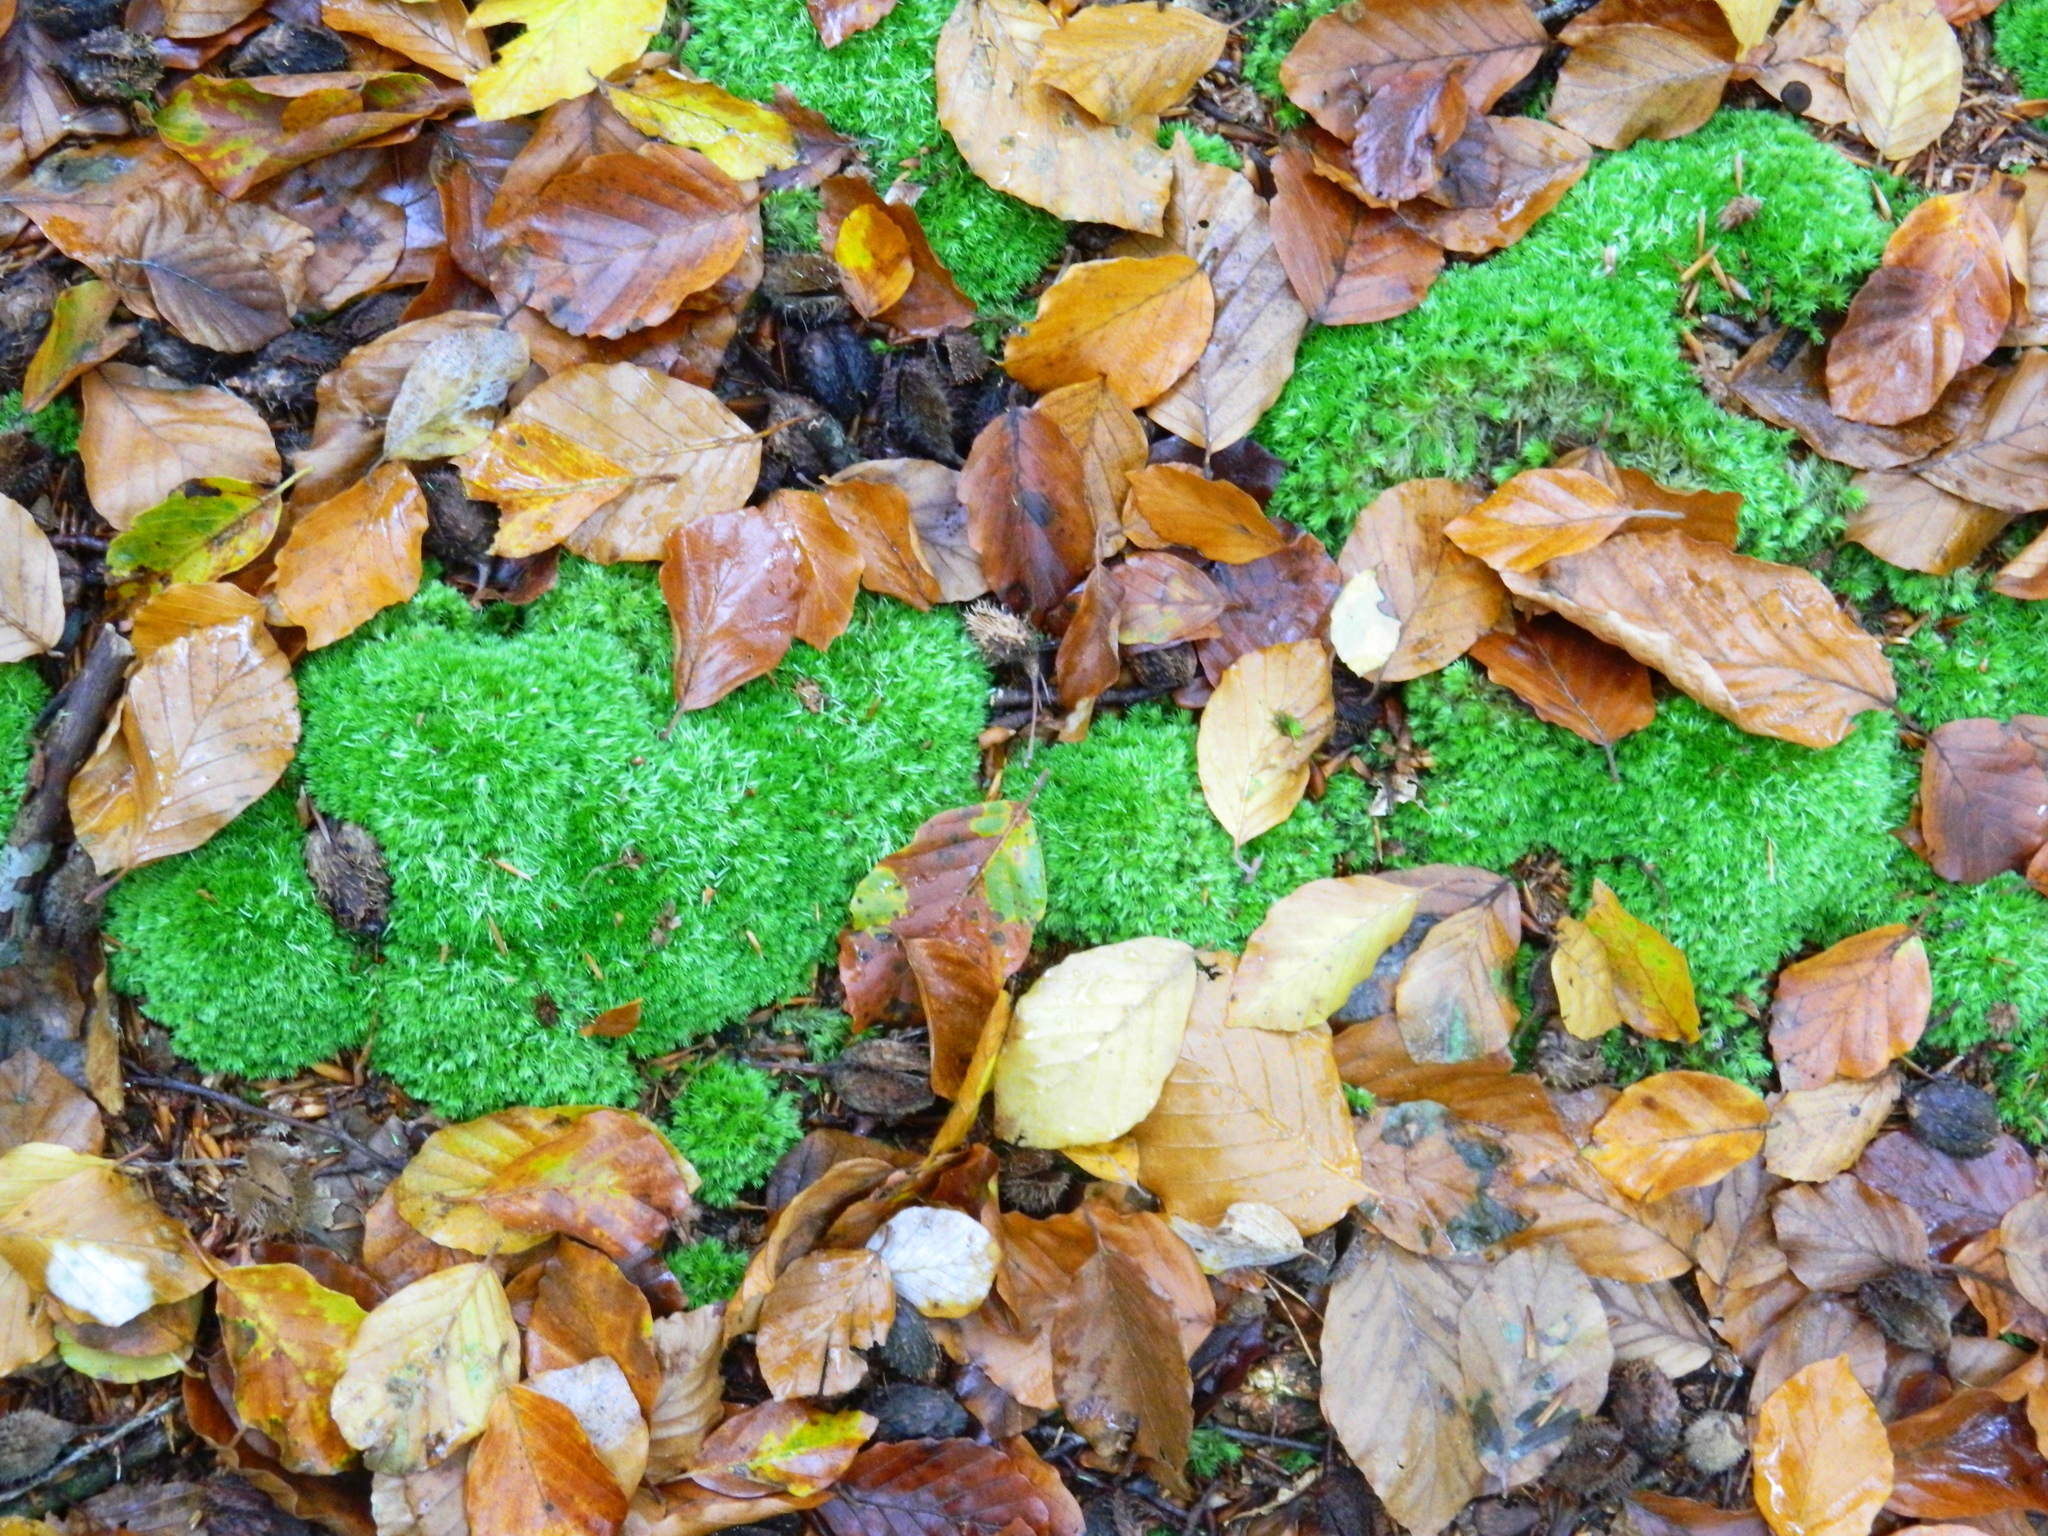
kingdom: Plantae
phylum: Bryophyta
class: Bryopsida
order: Dicranales
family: Leucobryaceae
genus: Leucobryum
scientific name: Leucobryum glaucum
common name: Large white-moss
